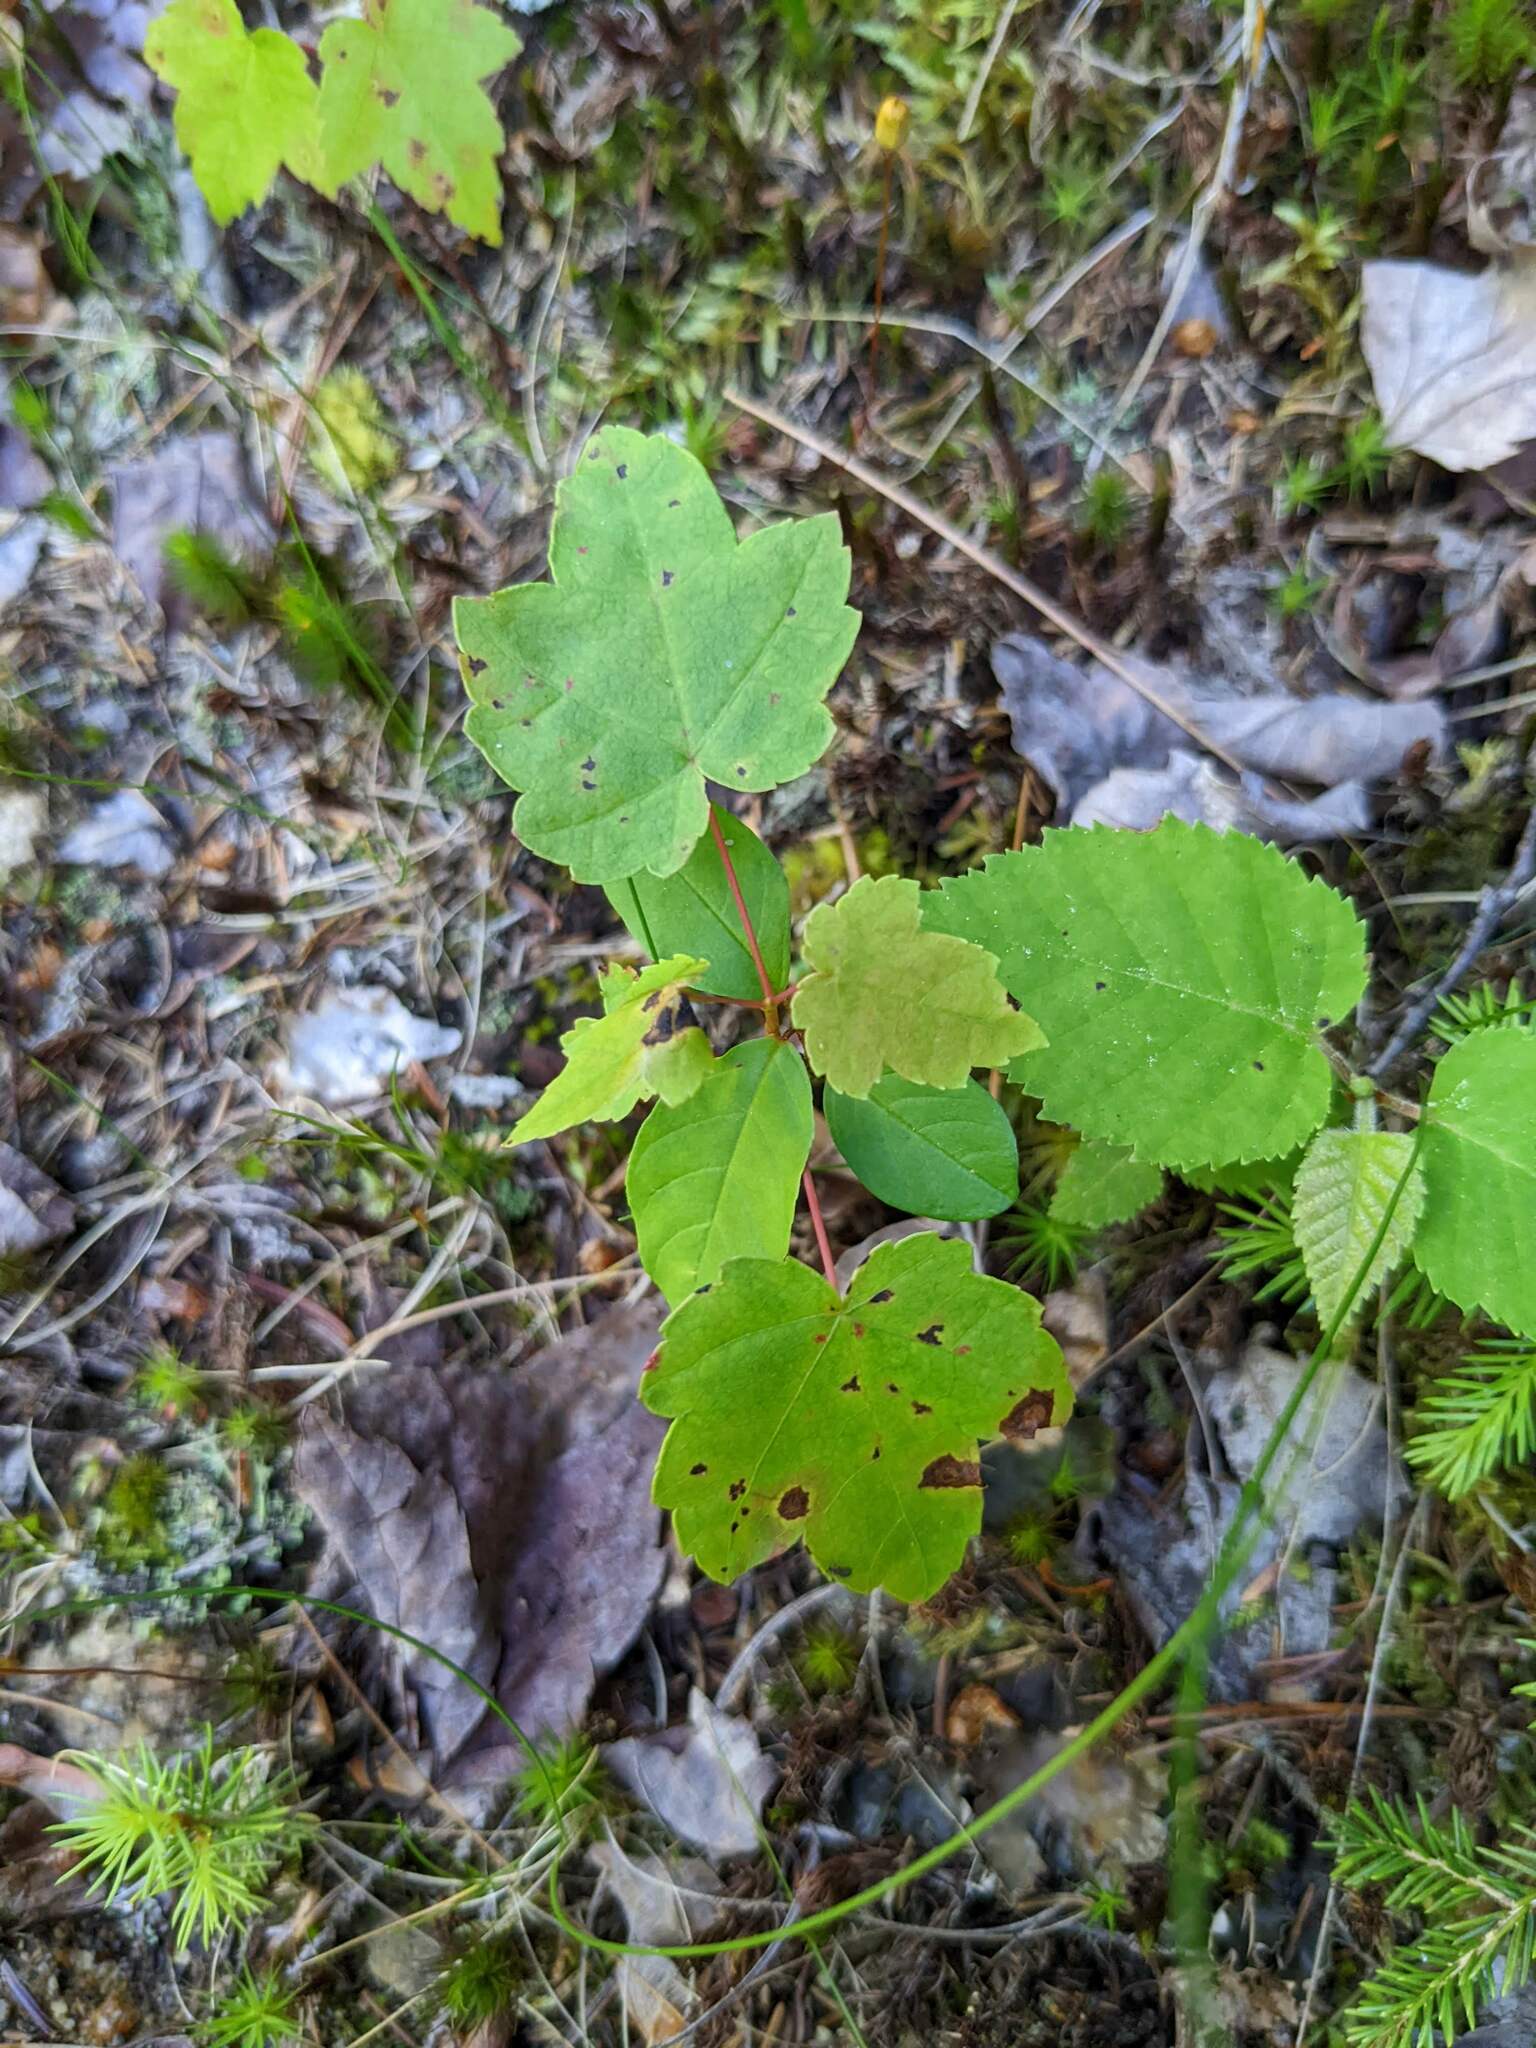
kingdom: Plantae
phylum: Tracheophyta
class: Magnoliopsida
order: Sapindales
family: Sapindaceae
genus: Acer
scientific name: Acer rubrum
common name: Red maple
